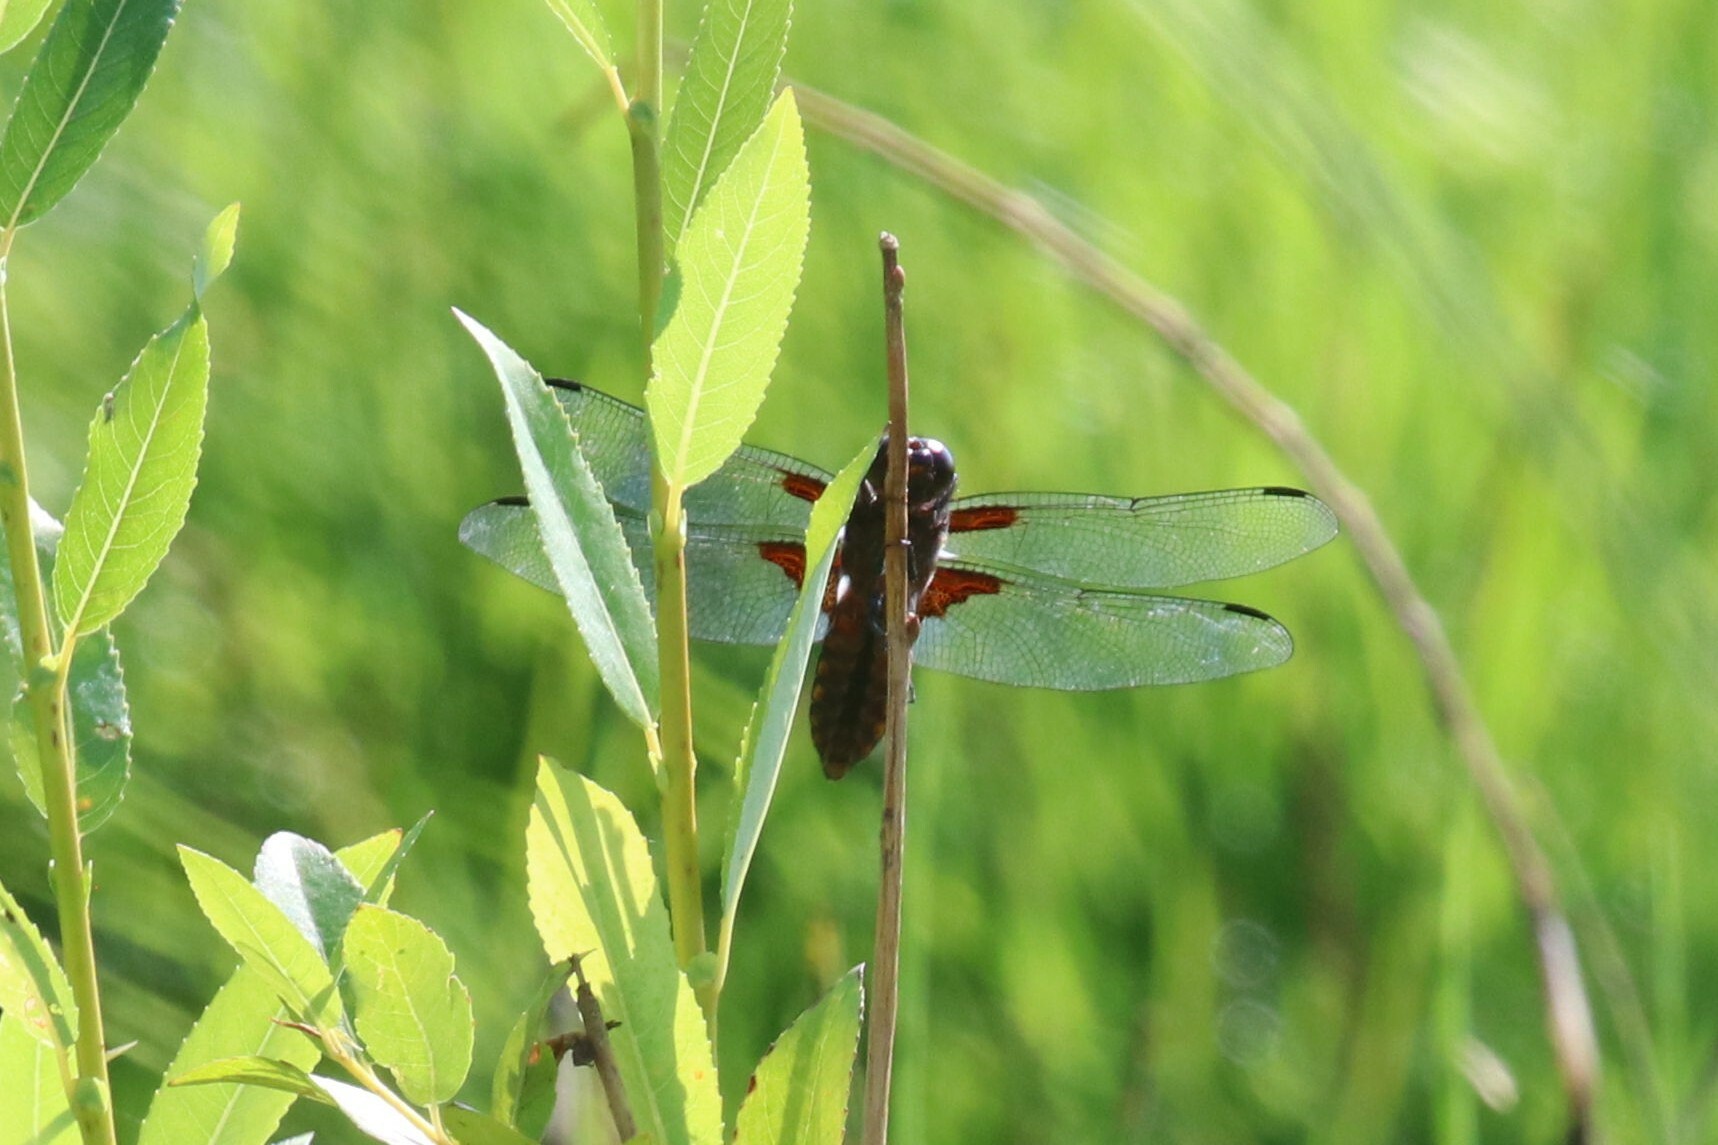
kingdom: Animalia
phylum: Arthropoda
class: Insecta
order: Odonata
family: Libellulidae
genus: Libellula
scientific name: Libellula depressa
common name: Broad-bodied chaser
